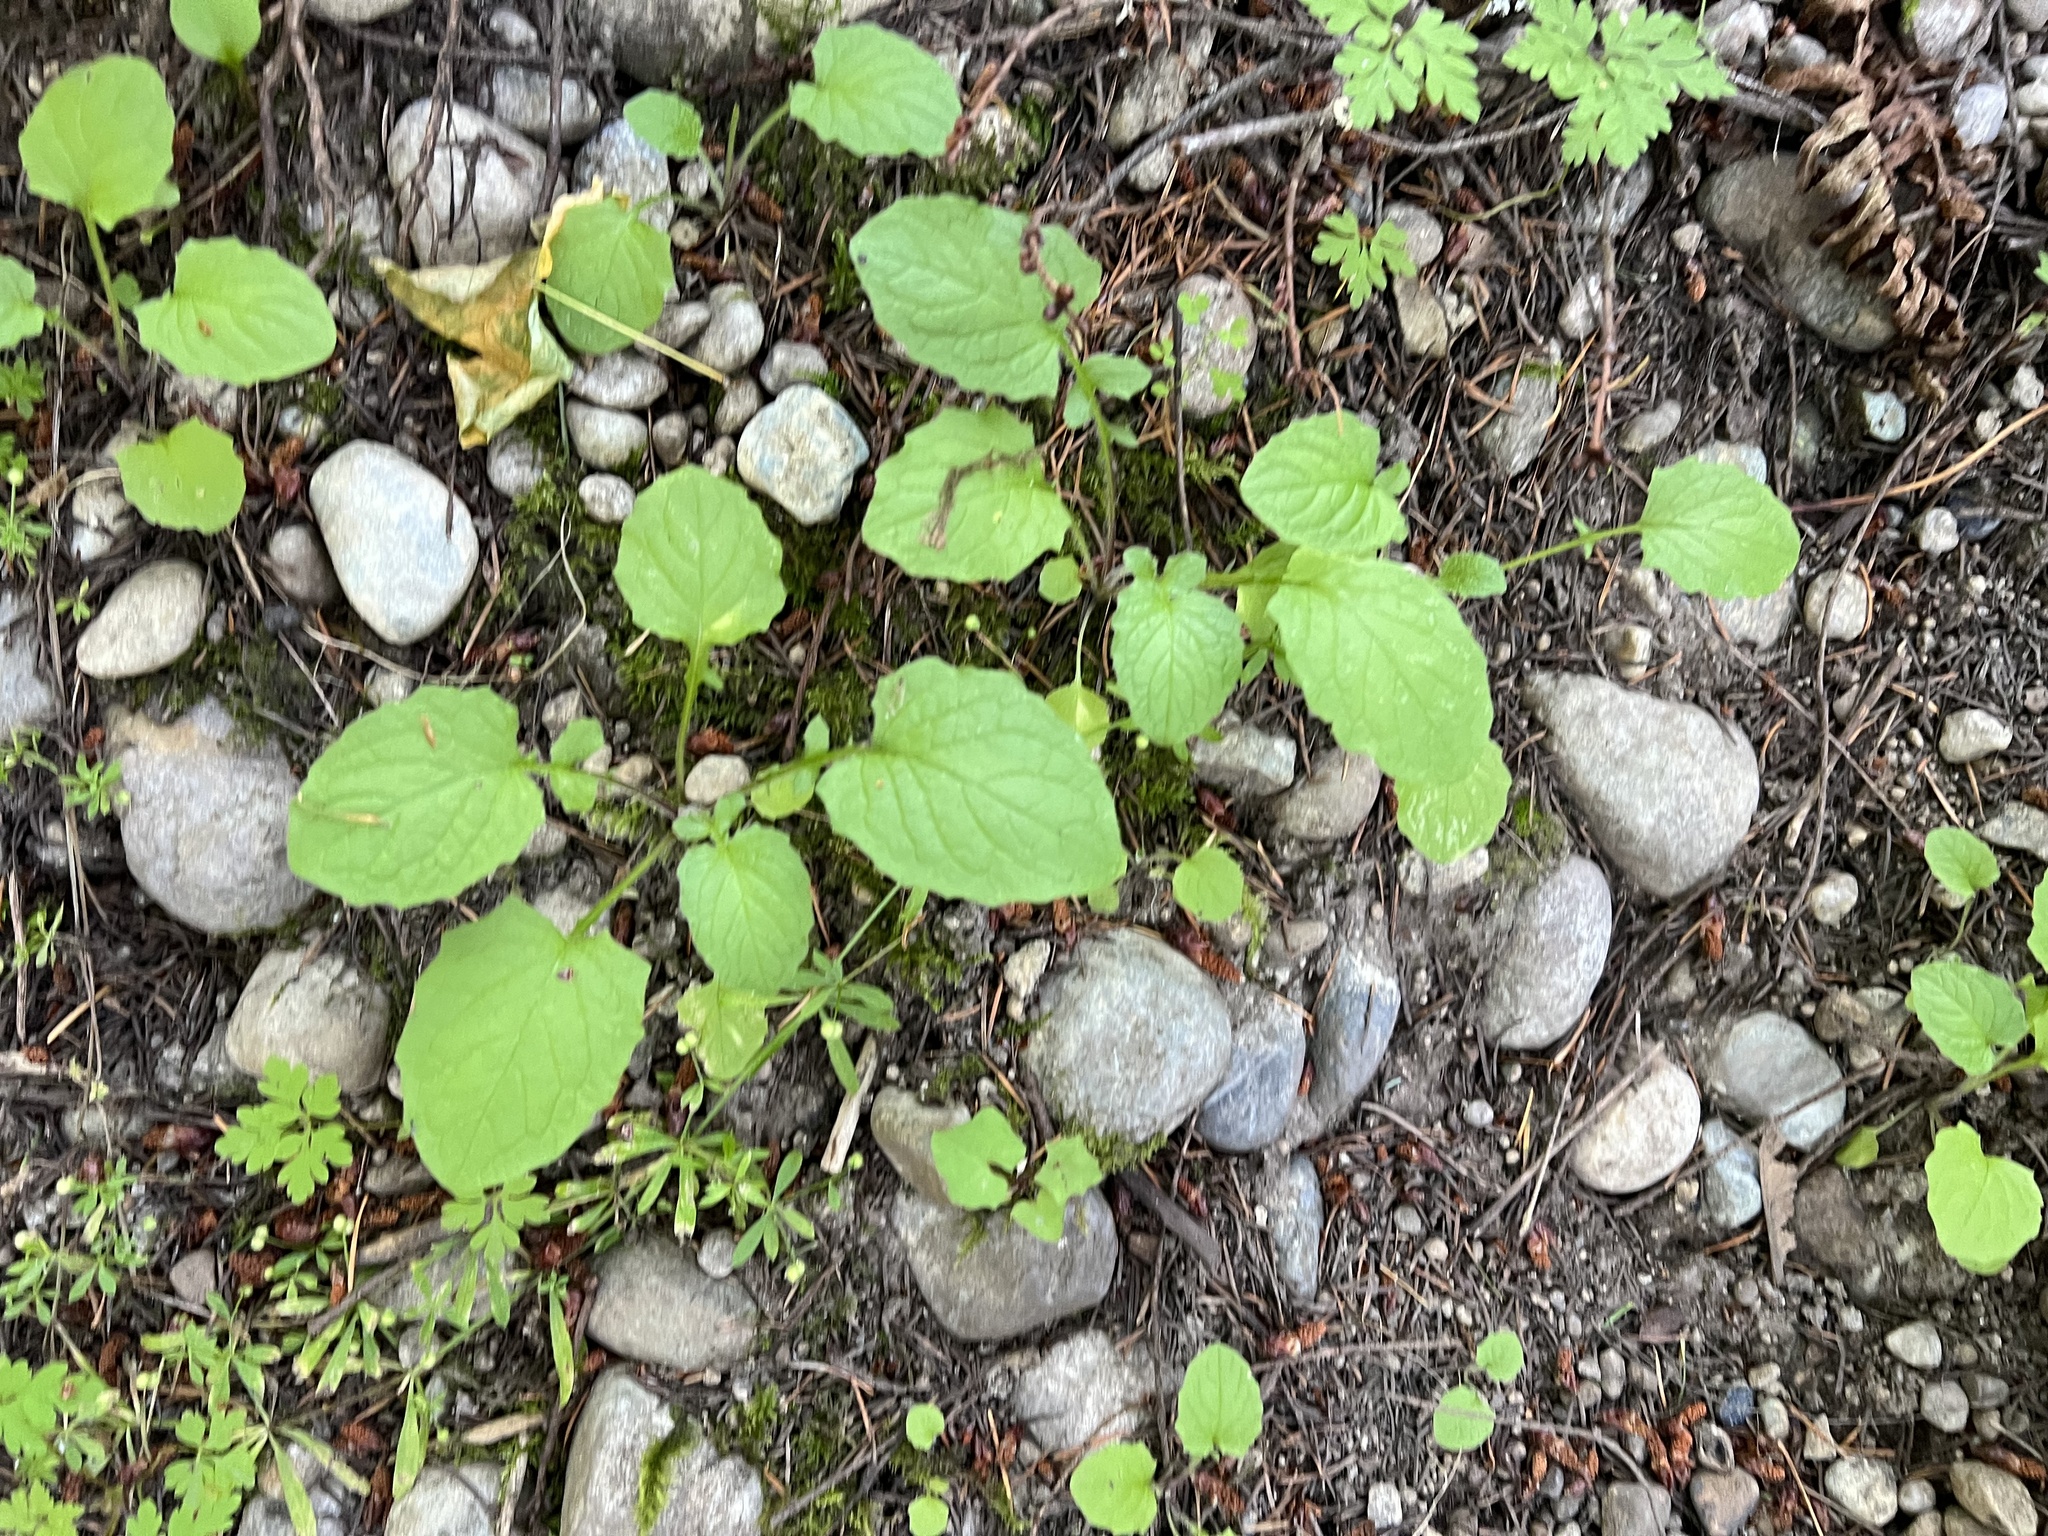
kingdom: Plantae
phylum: Tracheophyta
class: Magnoliopsida
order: Asterales
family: Asteraceae
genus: Lapsana
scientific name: Lapsana communis
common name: Nipplewort
